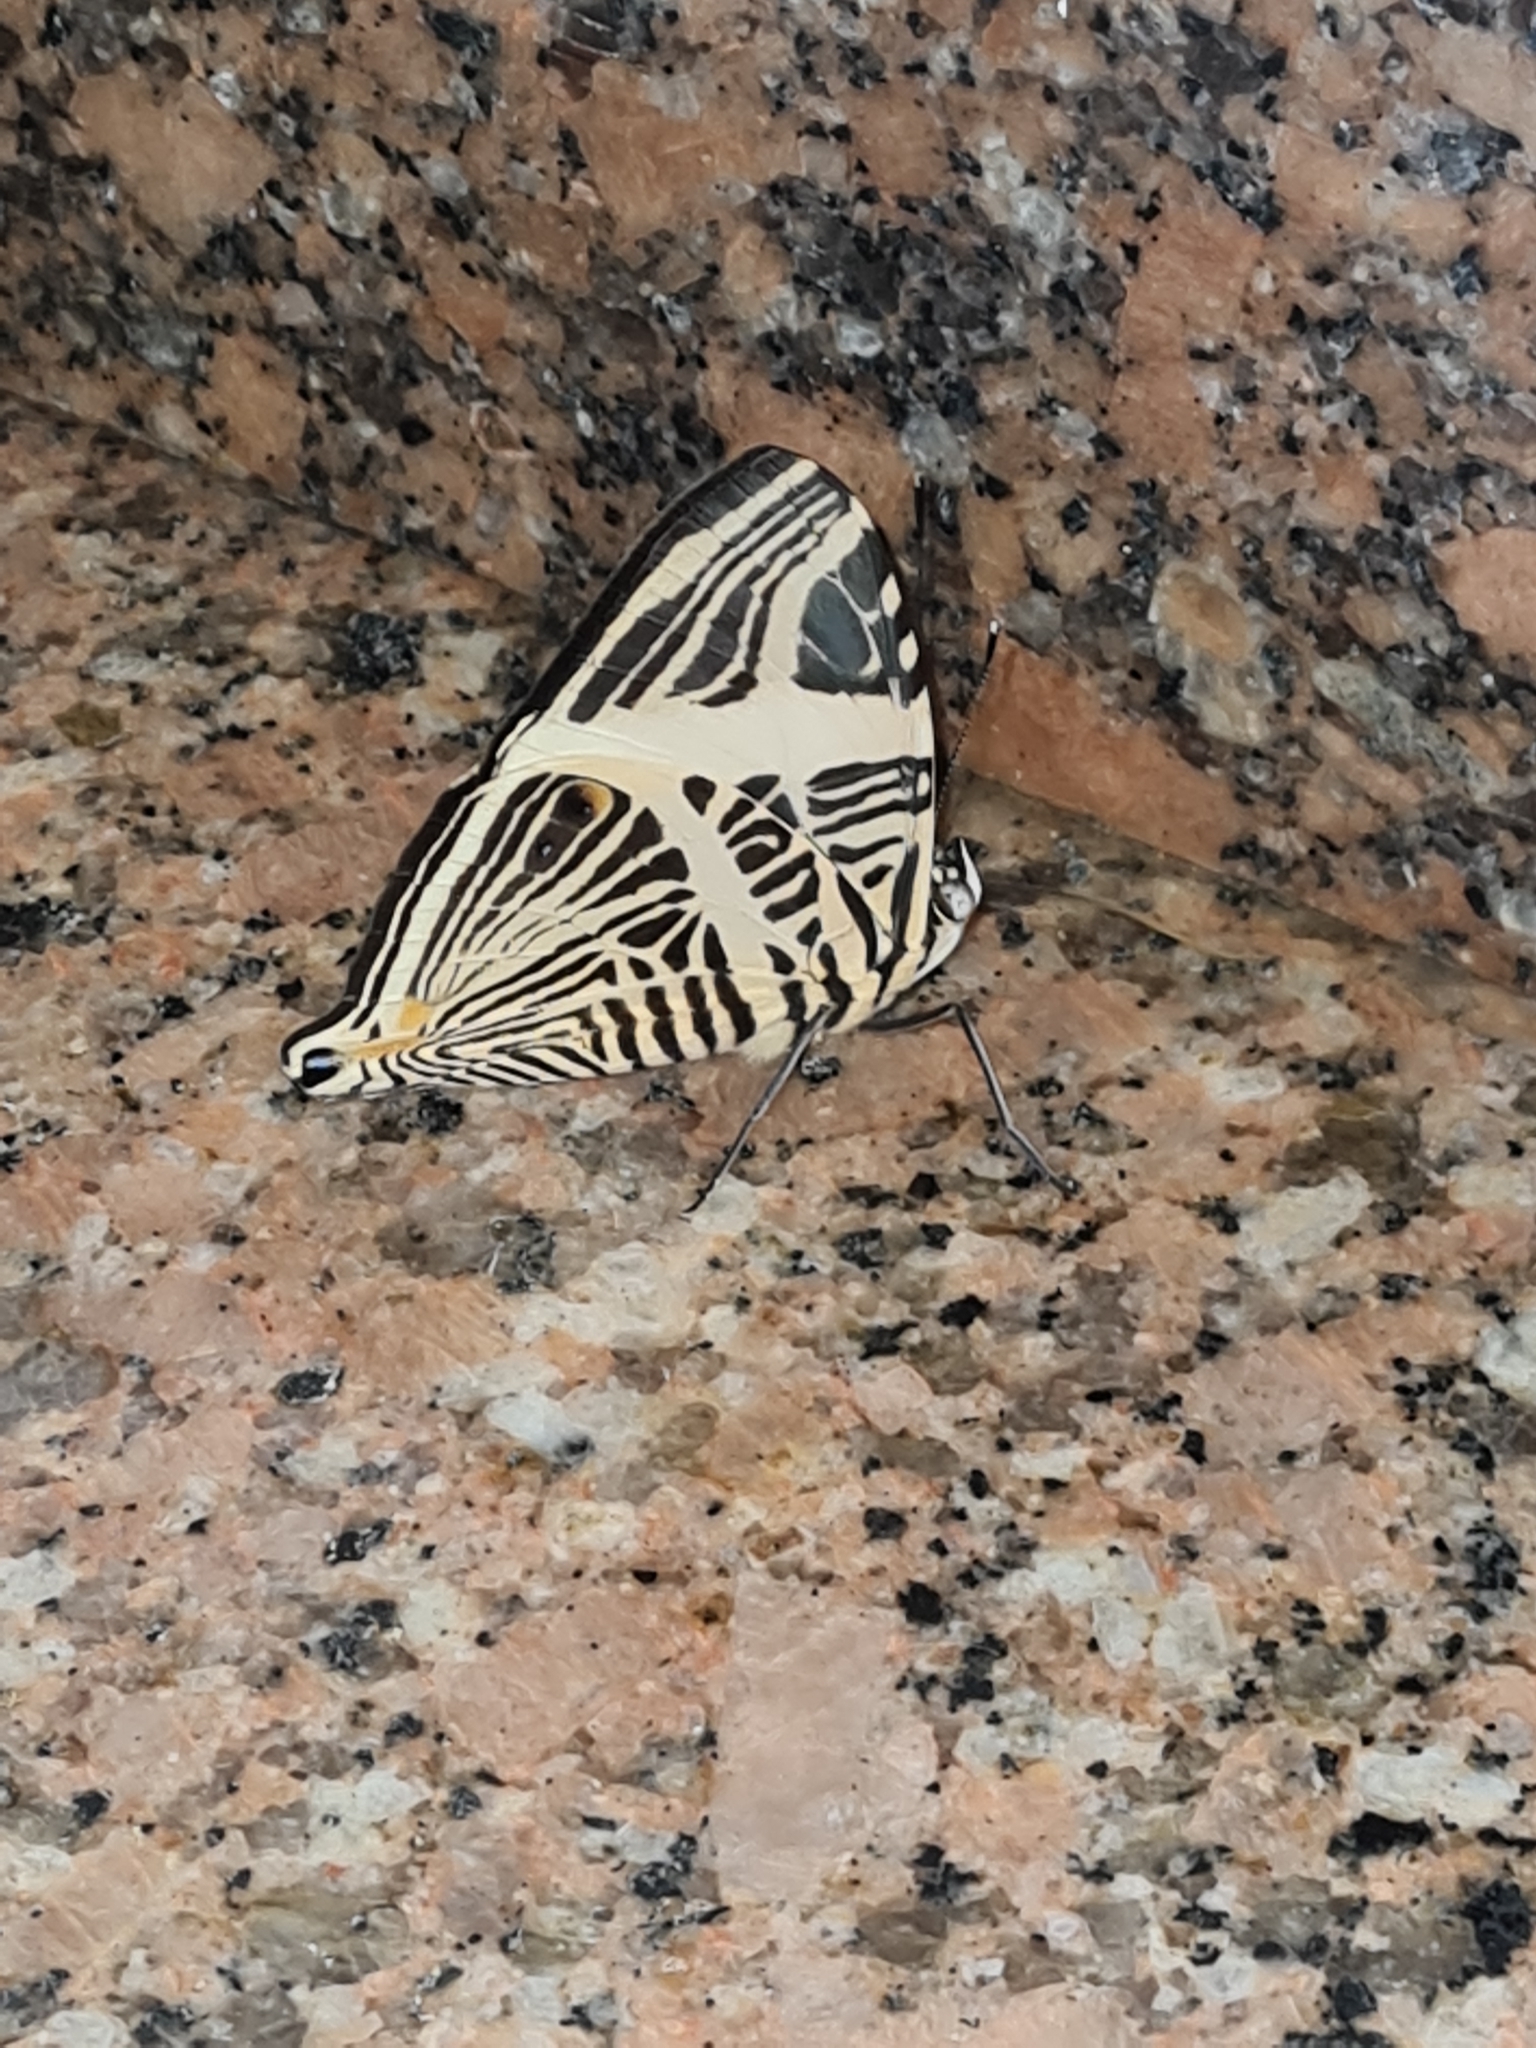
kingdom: Animalia
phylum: Arthropoda
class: Insecta
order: Lepidoptera
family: Nymphalidae
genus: Colobura
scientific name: Colobura dirce
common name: Dirce beauty
